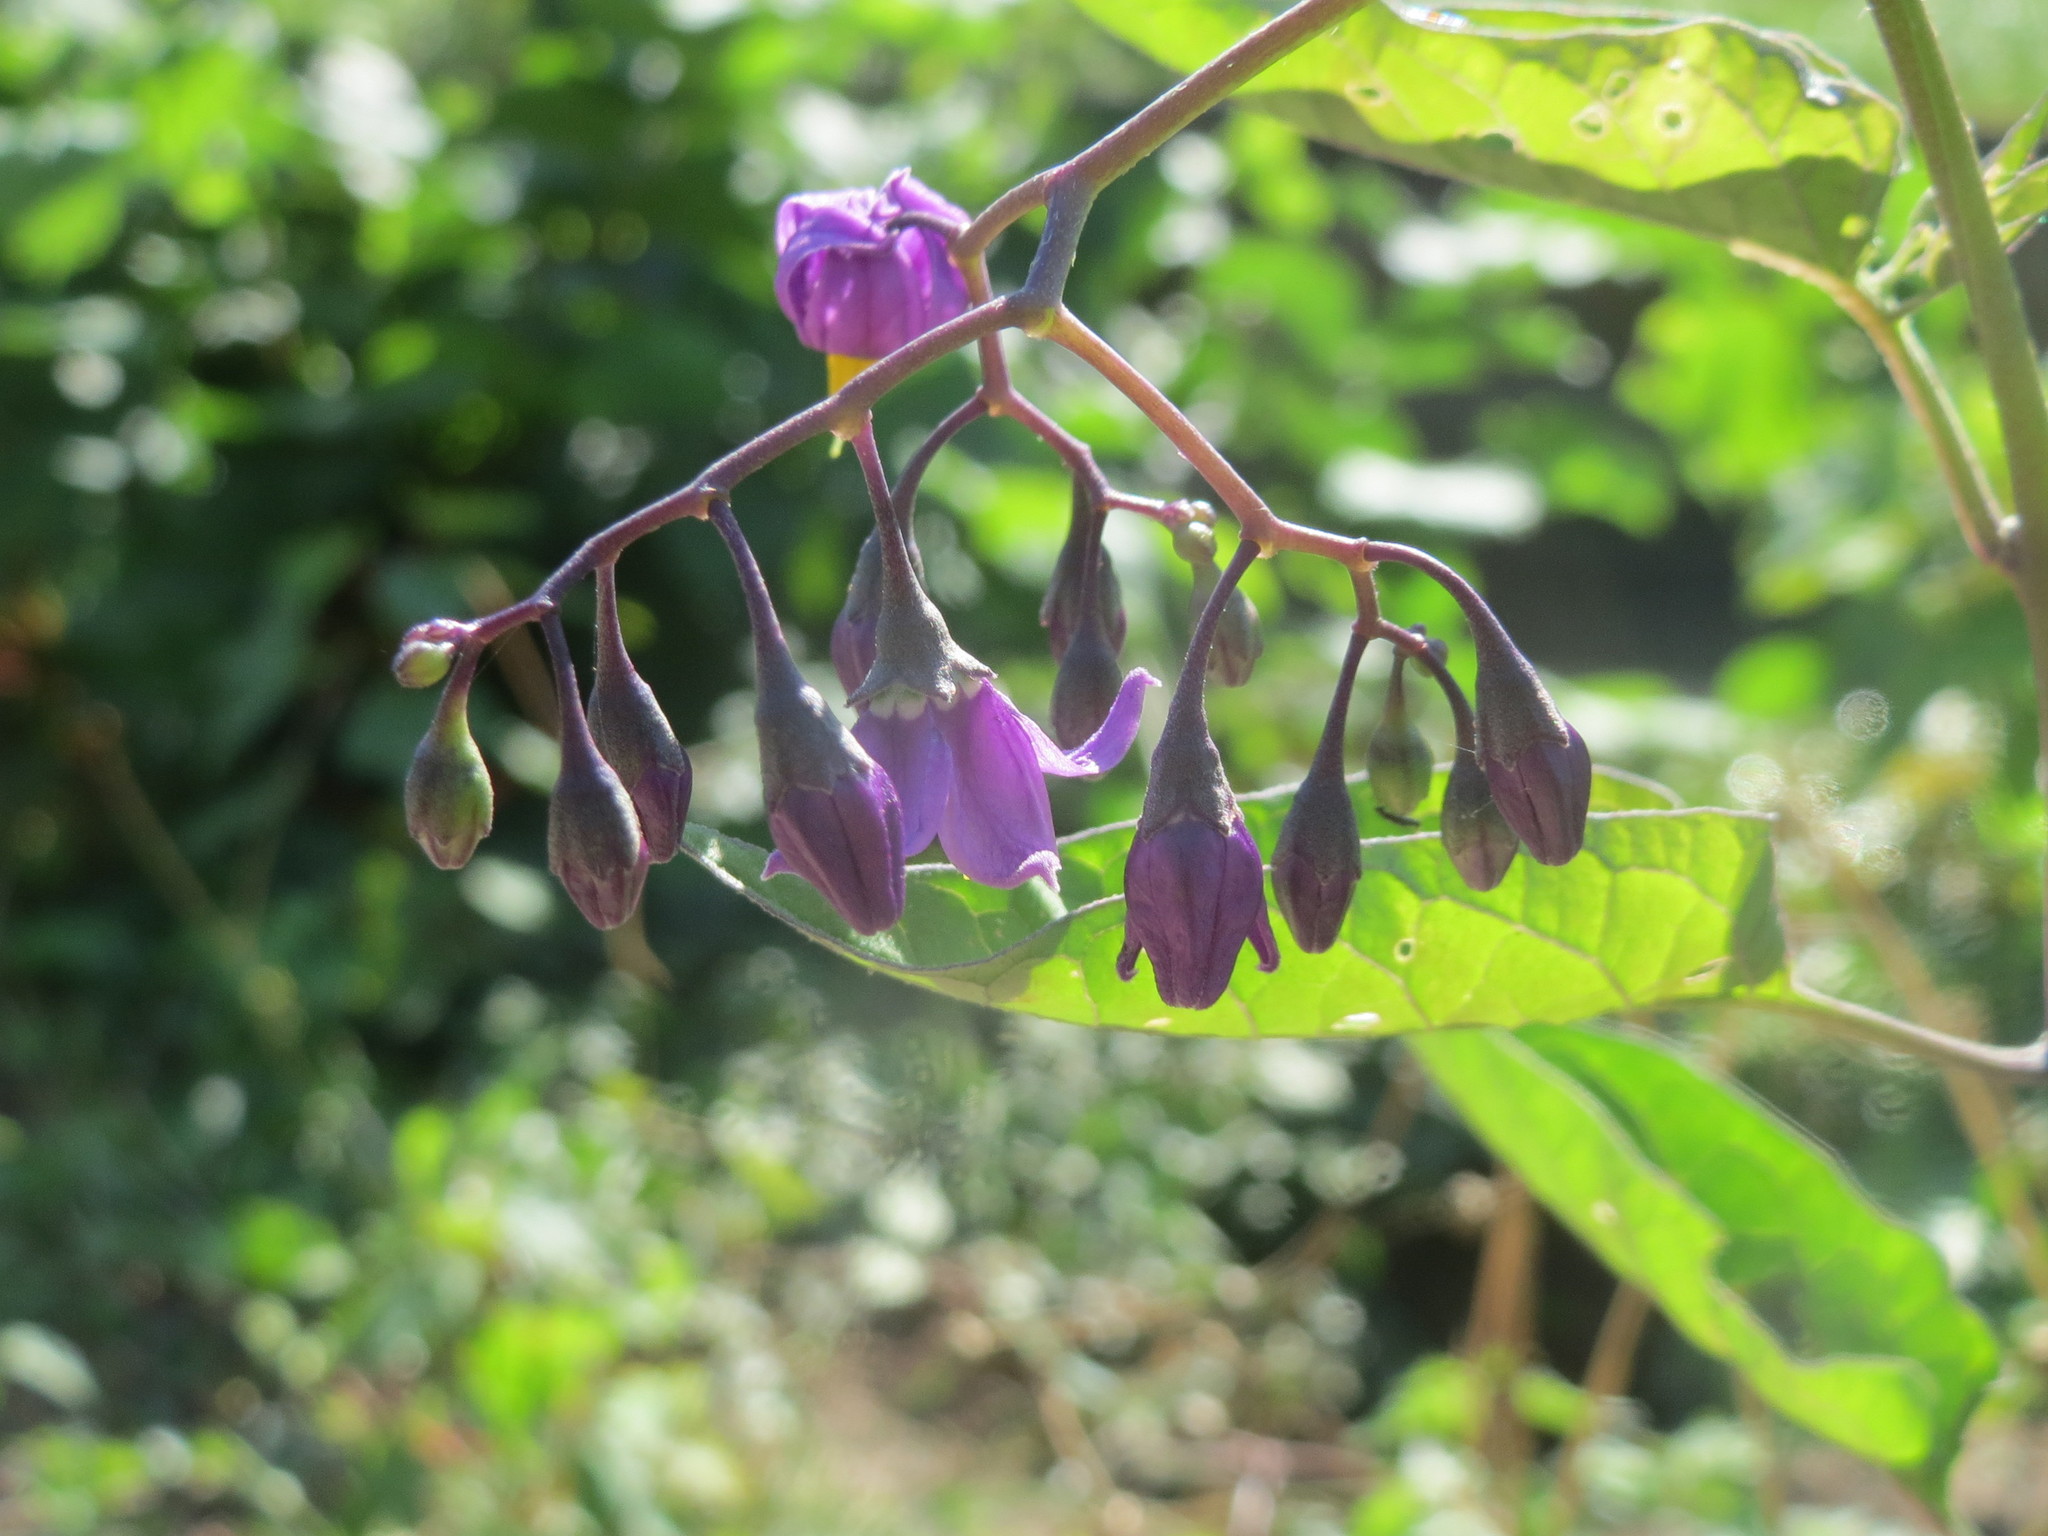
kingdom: Plantae
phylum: Tracheophyta
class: Magnoliopsida
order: Solanales
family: Solanaceae
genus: Solanum
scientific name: Solanum dulcamara
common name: Climbing nightshade
